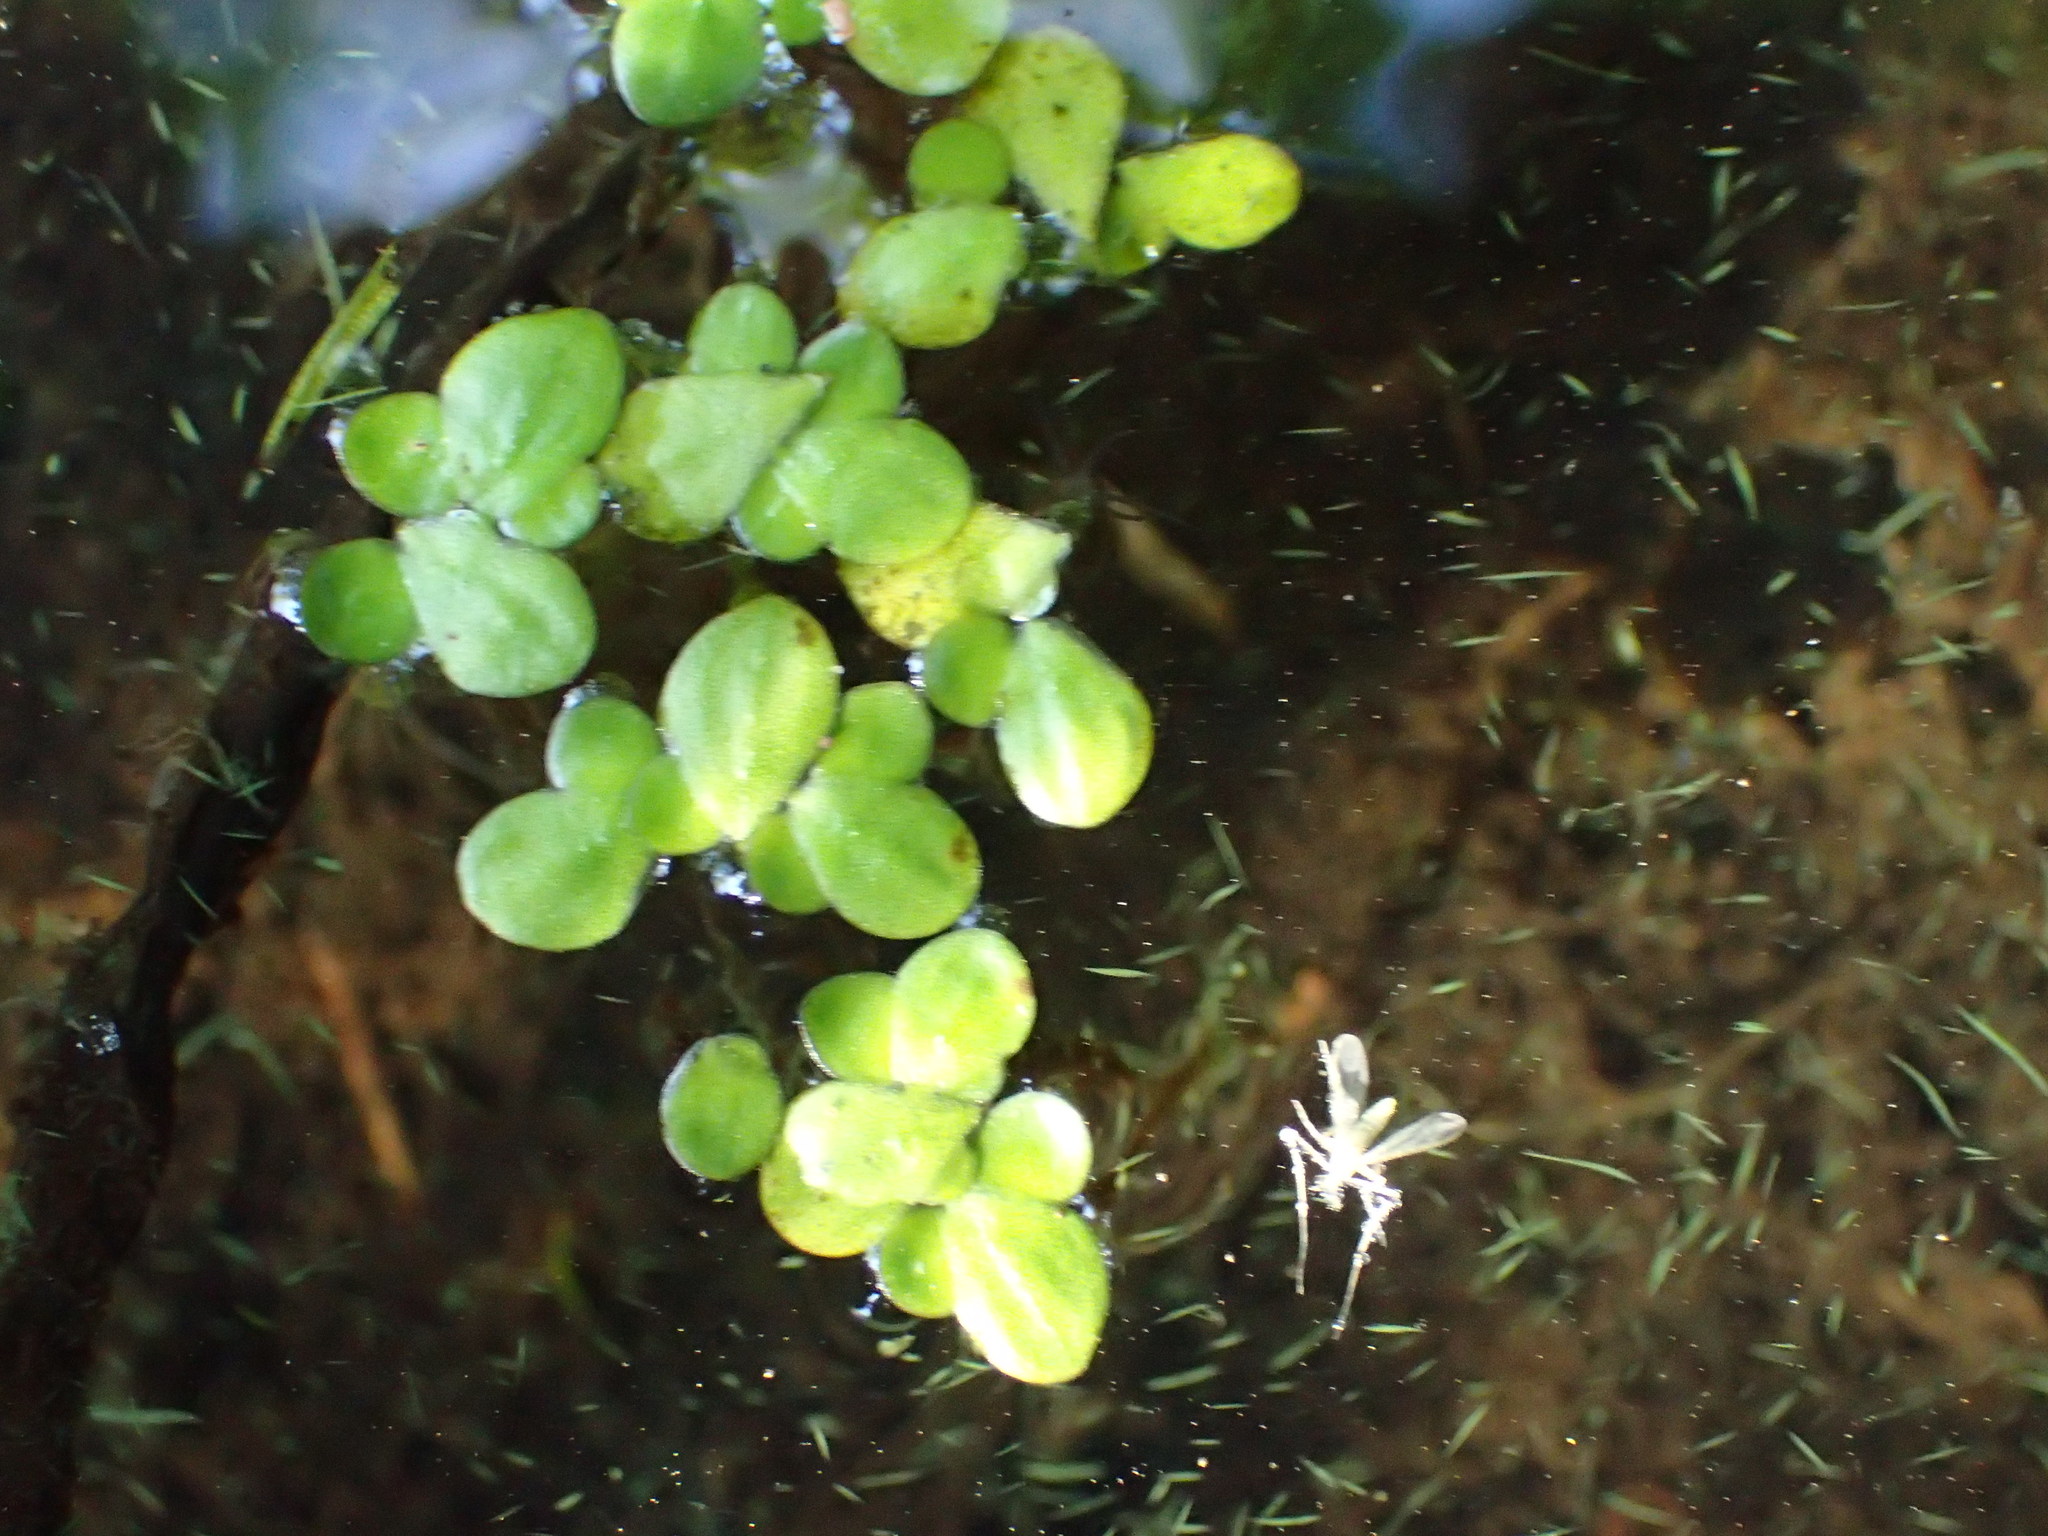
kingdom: Plantae
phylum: Tracheophyta
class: Liliopsida
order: Alismatales
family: Araceae
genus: Lemna
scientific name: Lemna minor
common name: Common duckweed
